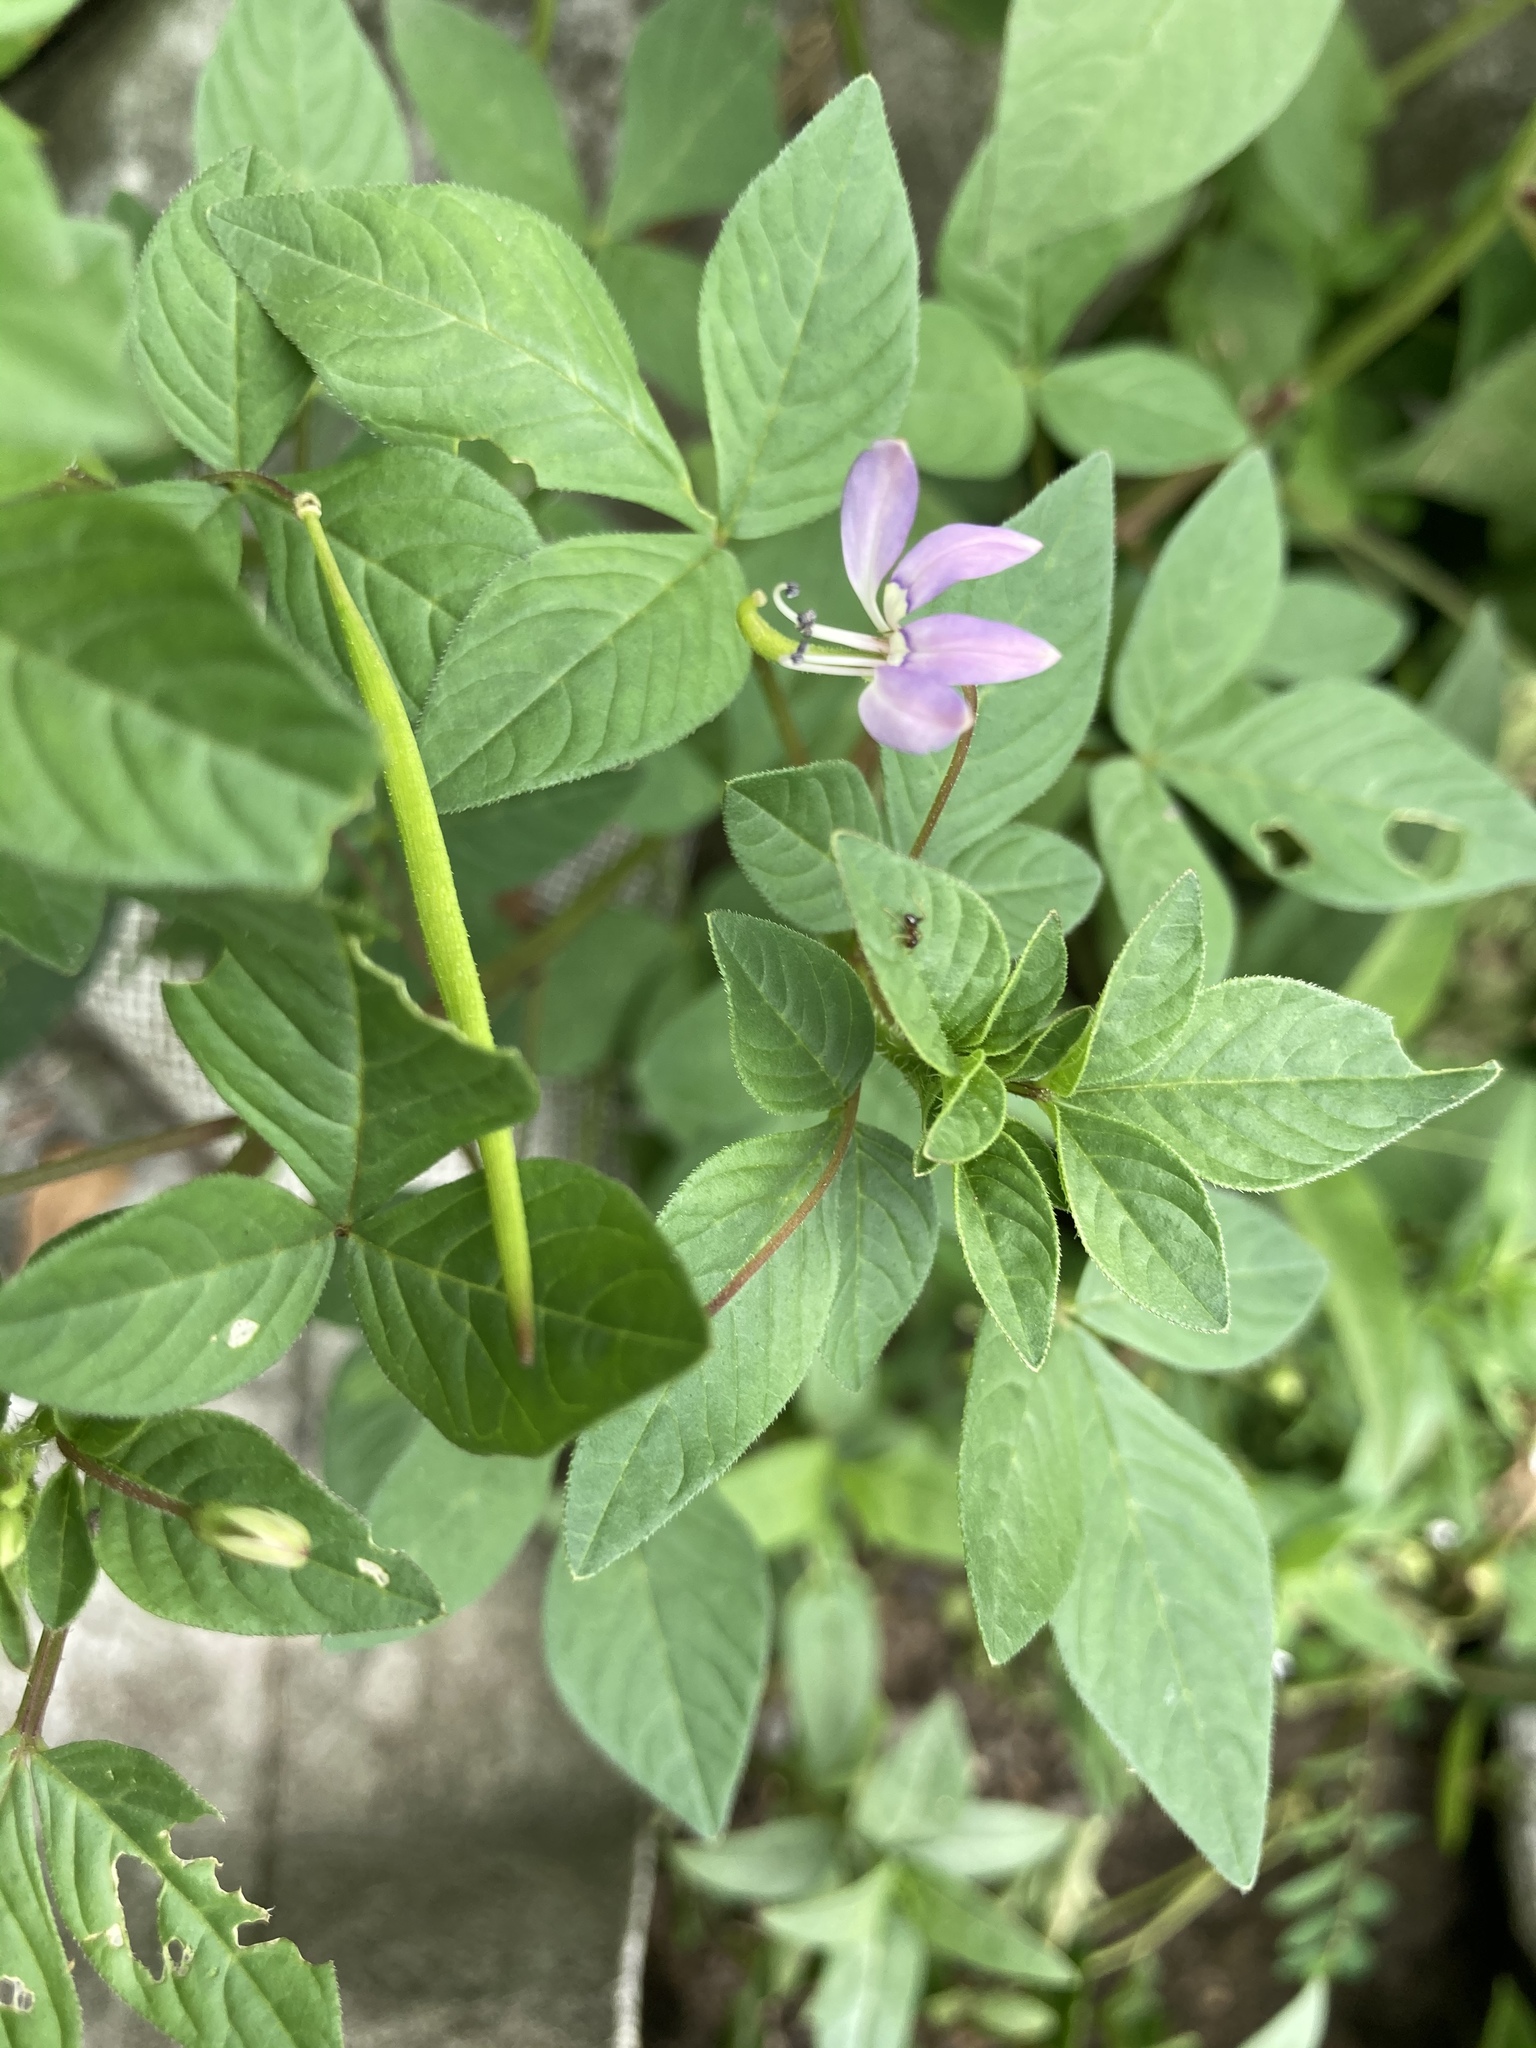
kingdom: Plantae
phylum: Tracheophyta
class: Magnoliopsida
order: Brassicales
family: Cleomaceae
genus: Sieruela
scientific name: Sieruela rutidosperma
